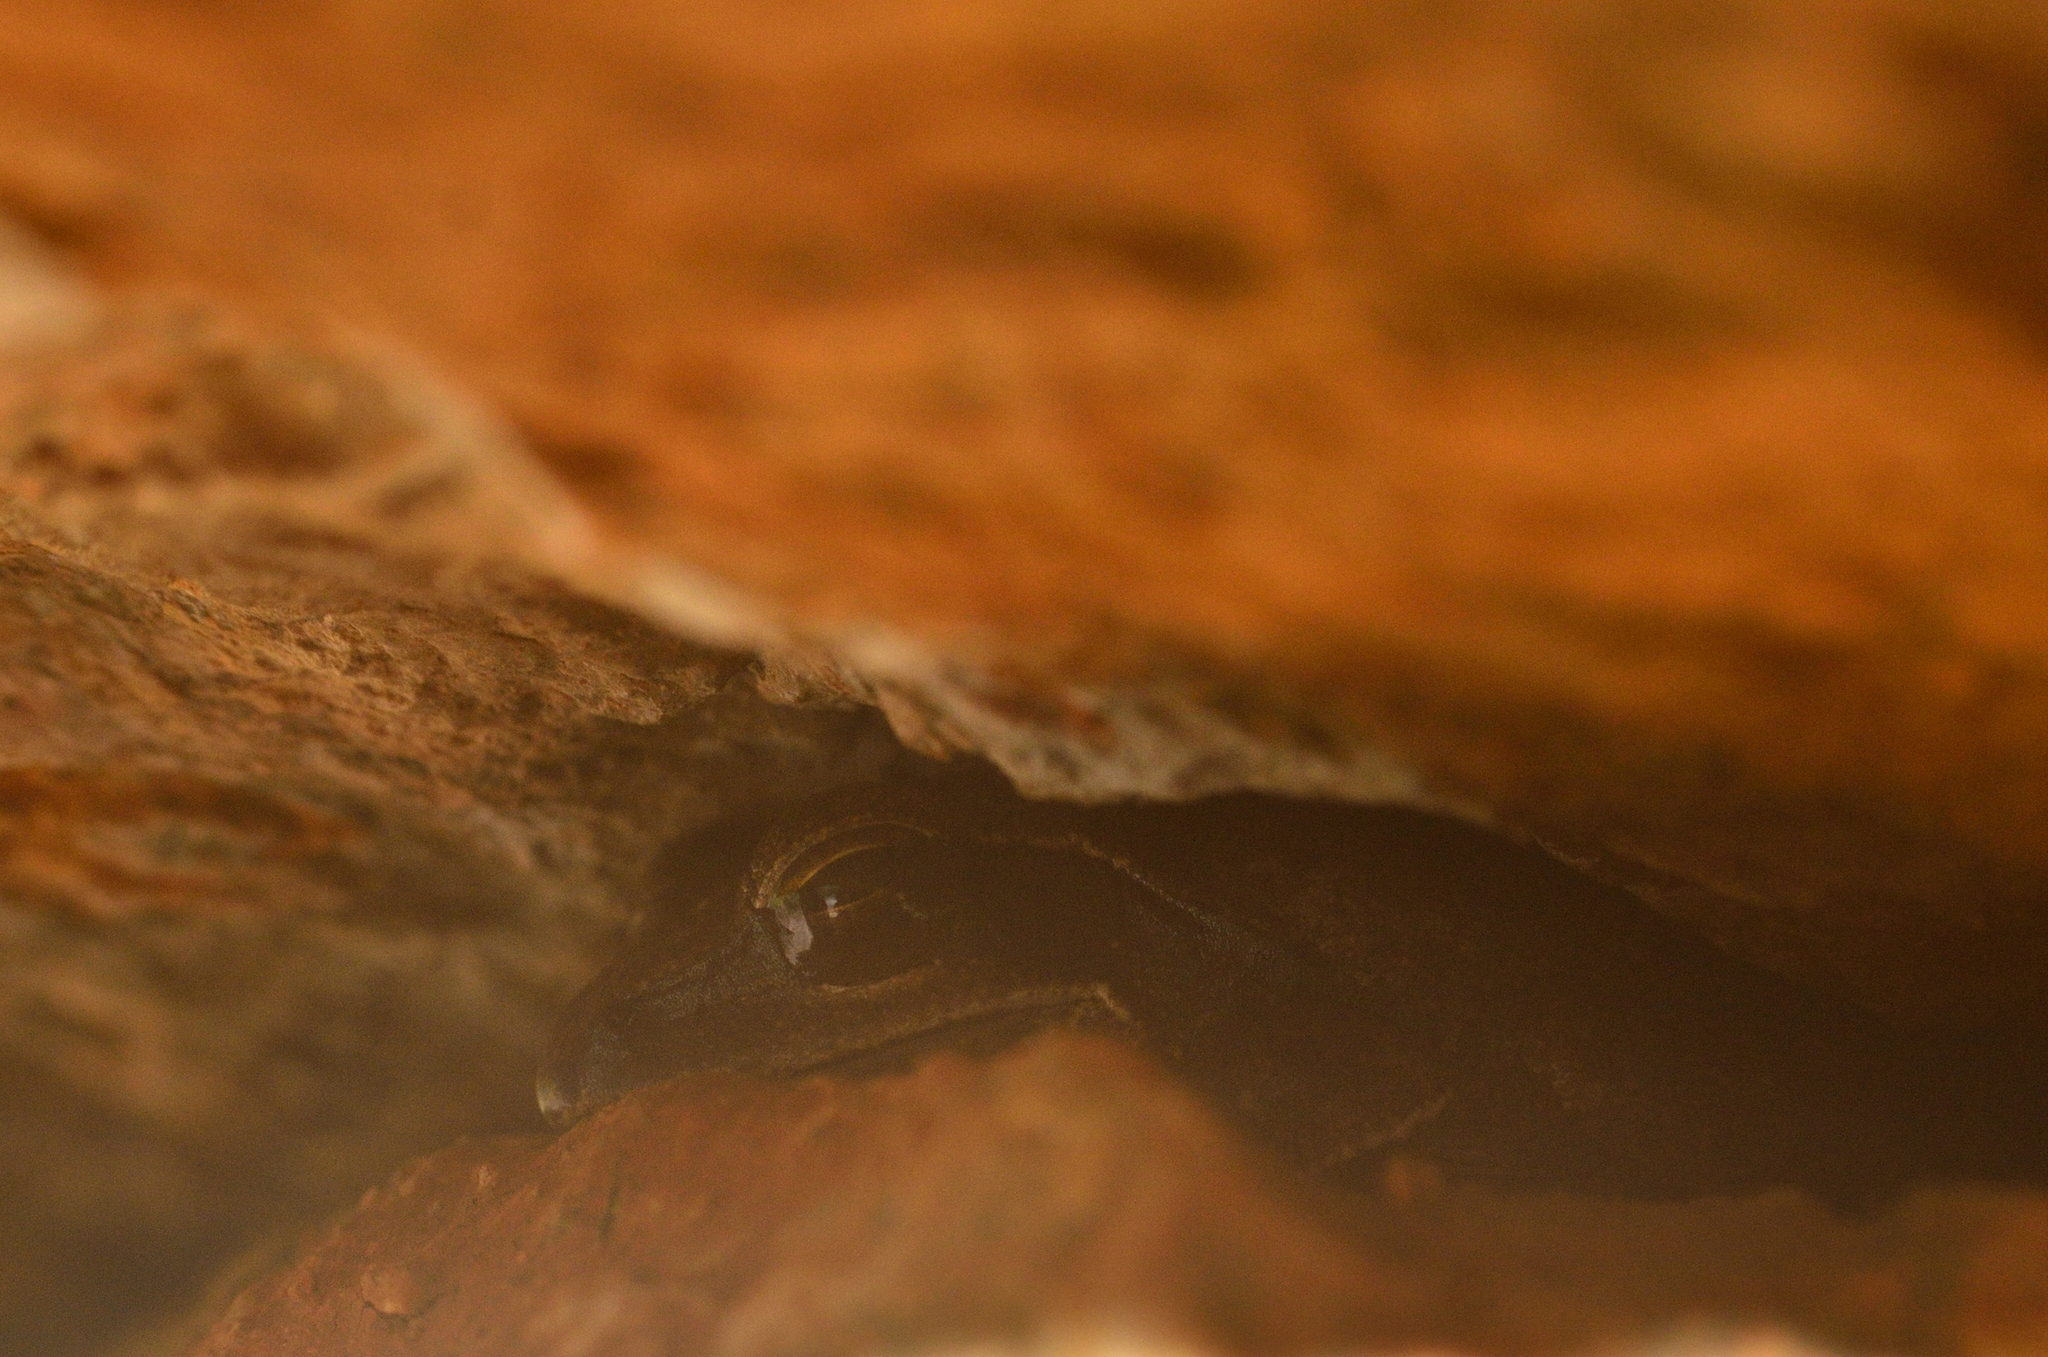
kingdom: Animalia
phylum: Chordata
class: Amphibia
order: Anura
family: Rhacophoridae
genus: Polypedates
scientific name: Polypedates maculatus
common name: Himalayan tree frog
